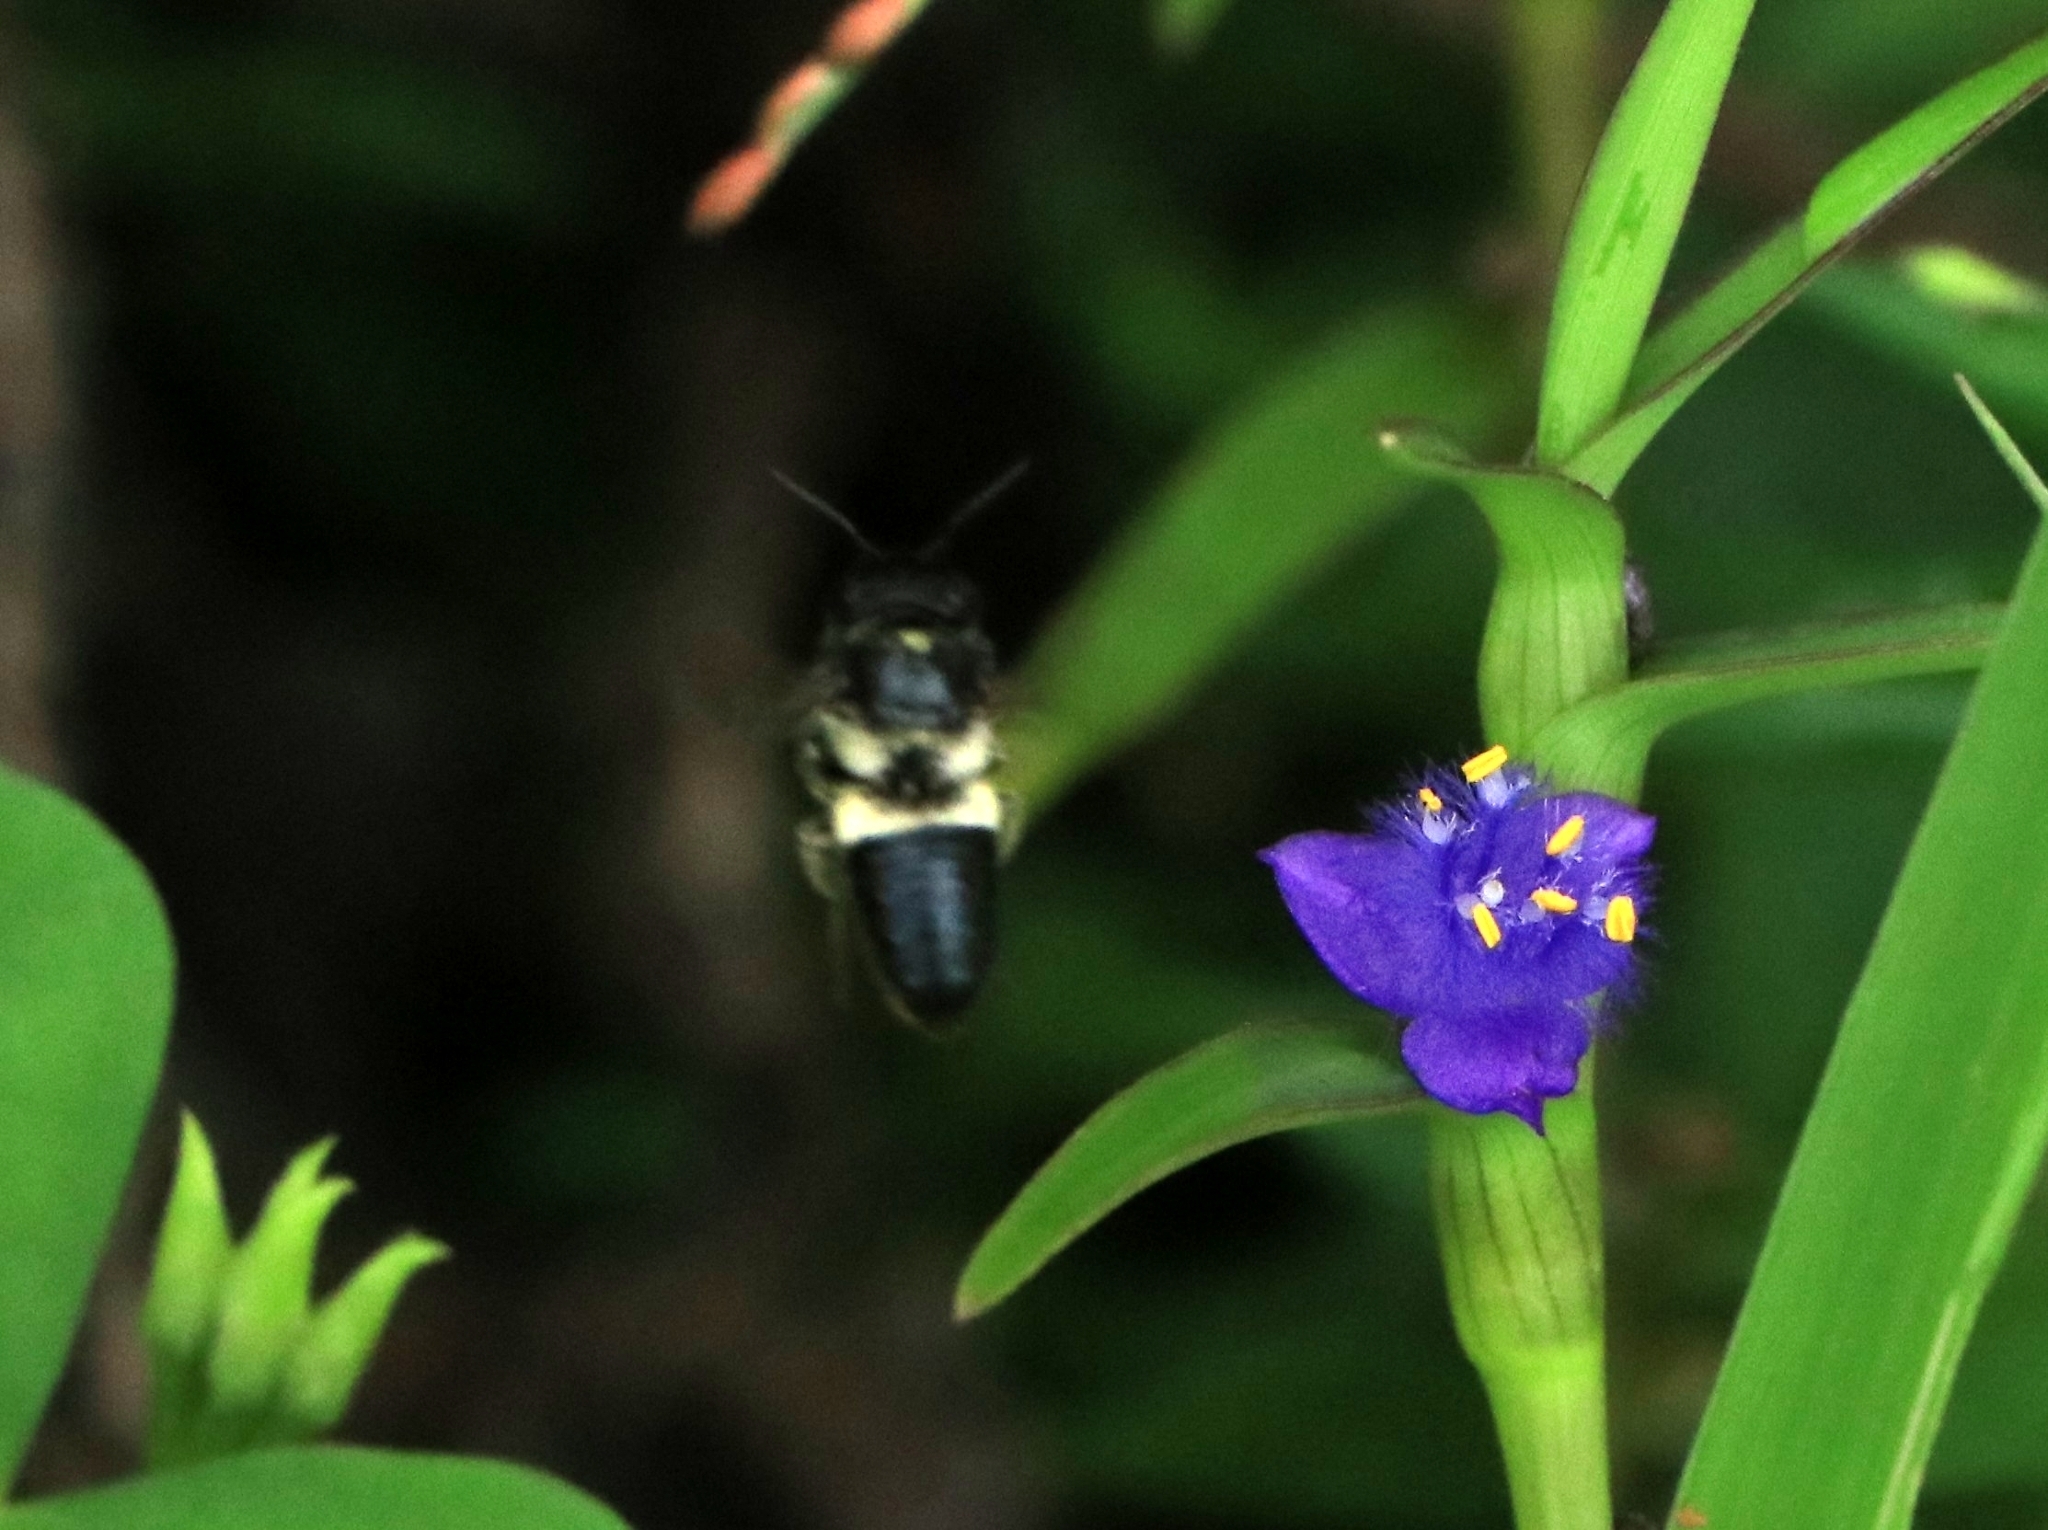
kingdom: Animalia
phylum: Arthropoda
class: Insecta
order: Hymenoptera
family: Megachilidae
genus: Megachile
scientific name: Megachile conjuncta
